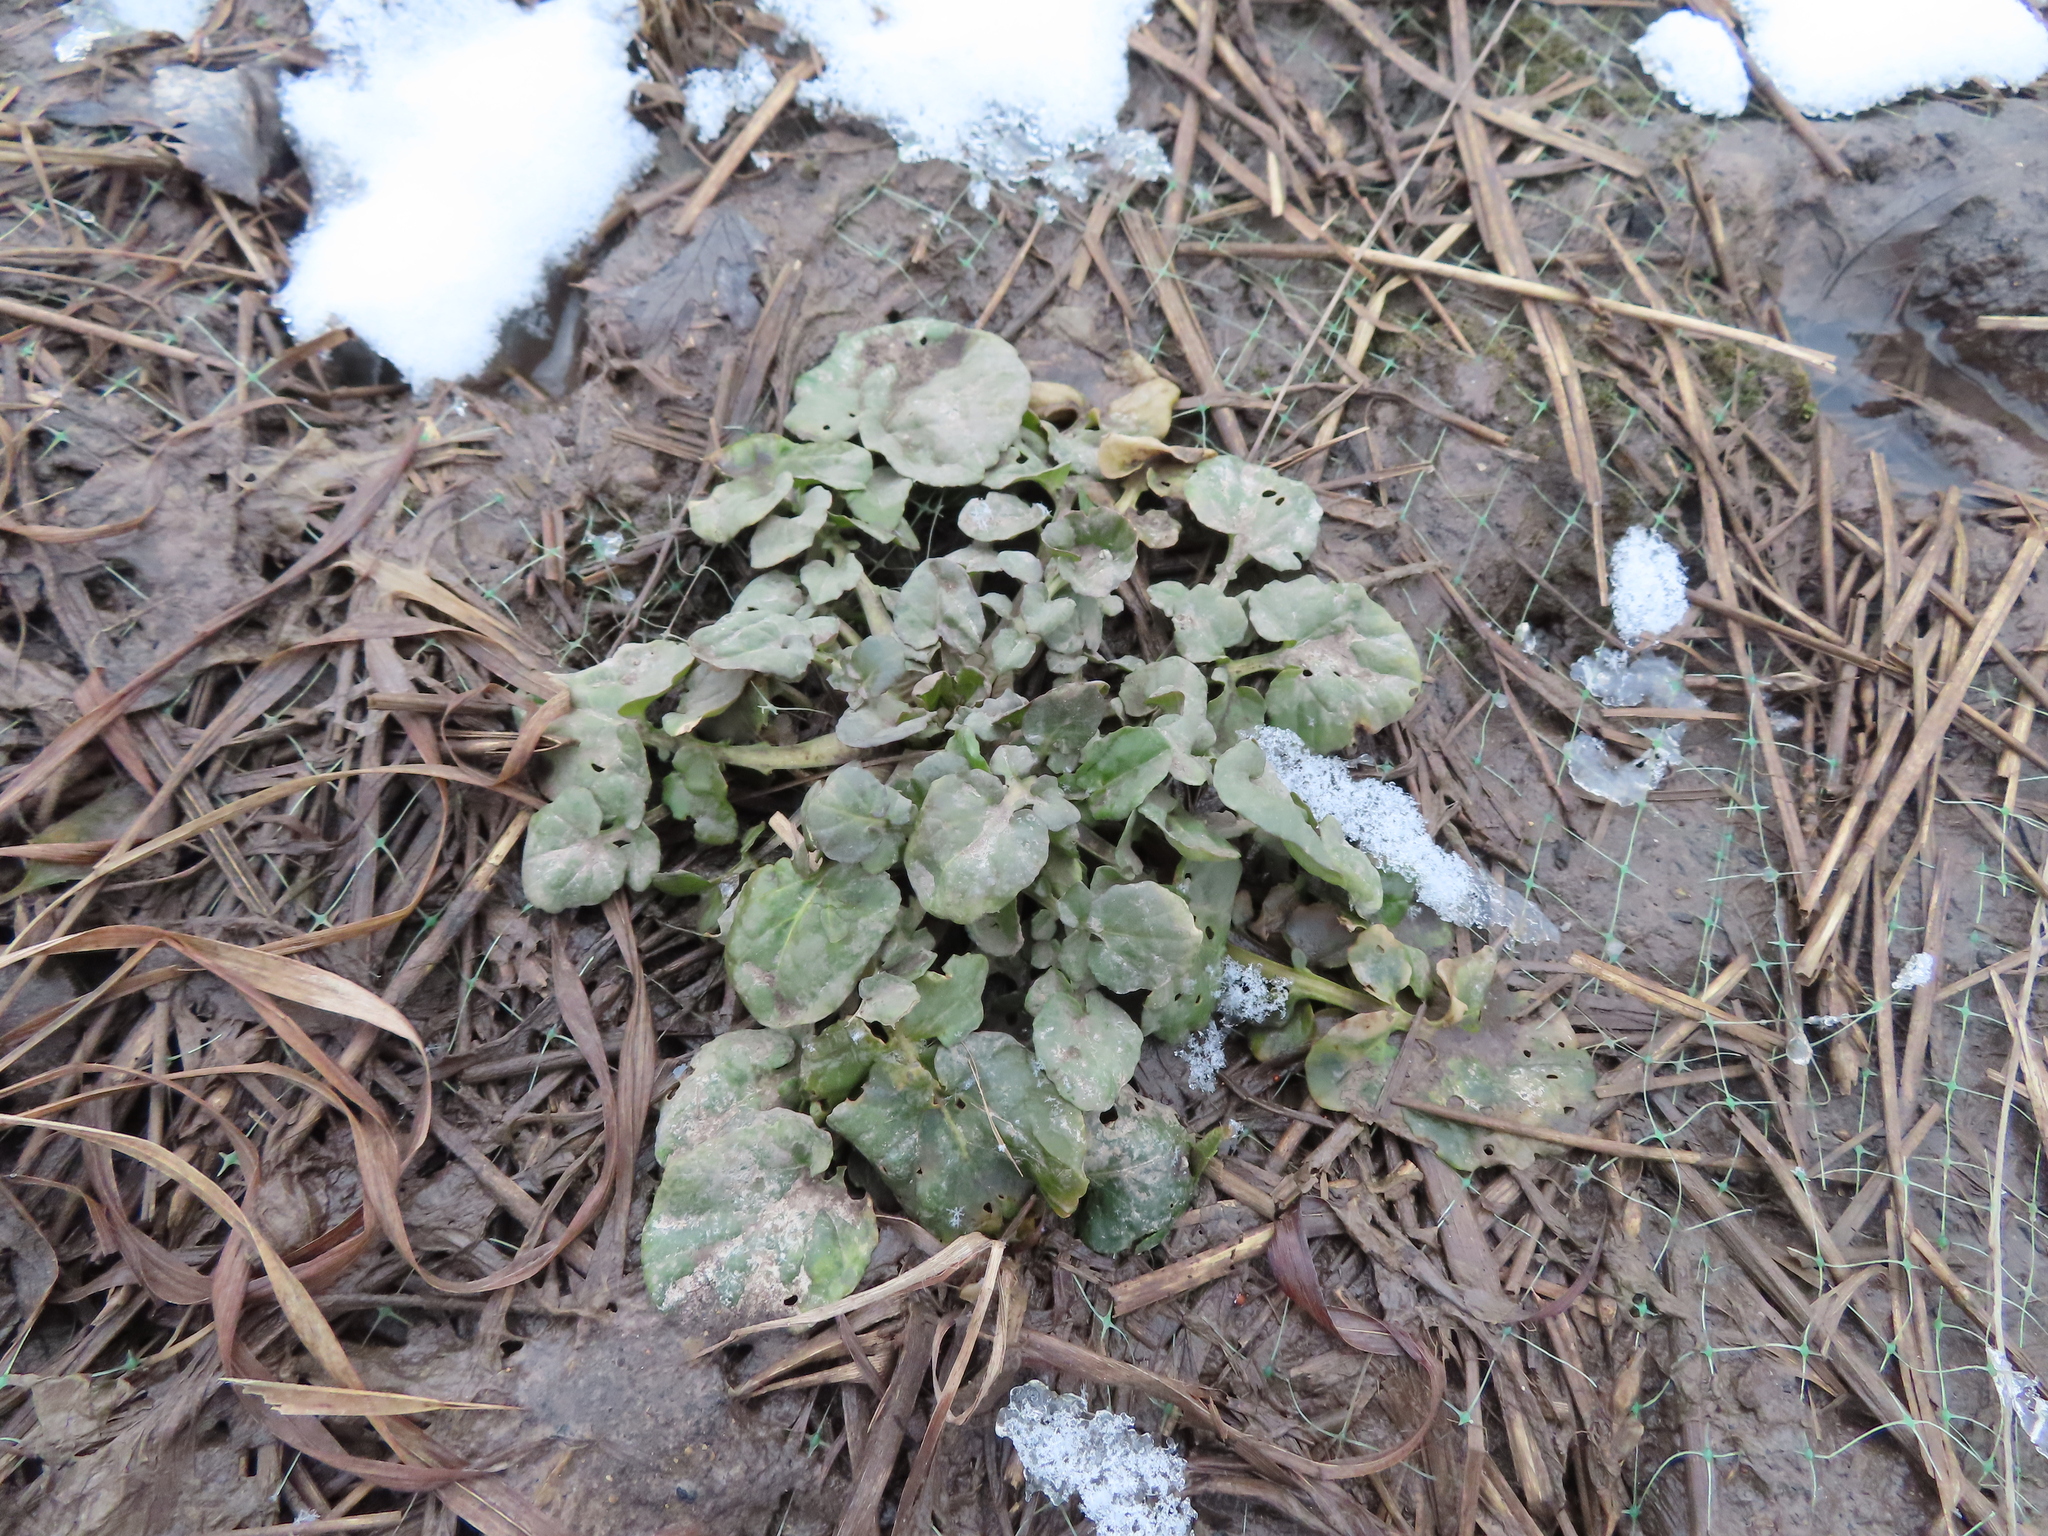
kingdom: Plantae
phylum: Tracheophyta
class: Magnoliopsida
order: Brassicales
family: Brassicaceae
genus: Barbarea
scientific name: Barbarea vulgaris
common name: Cressy-greens
